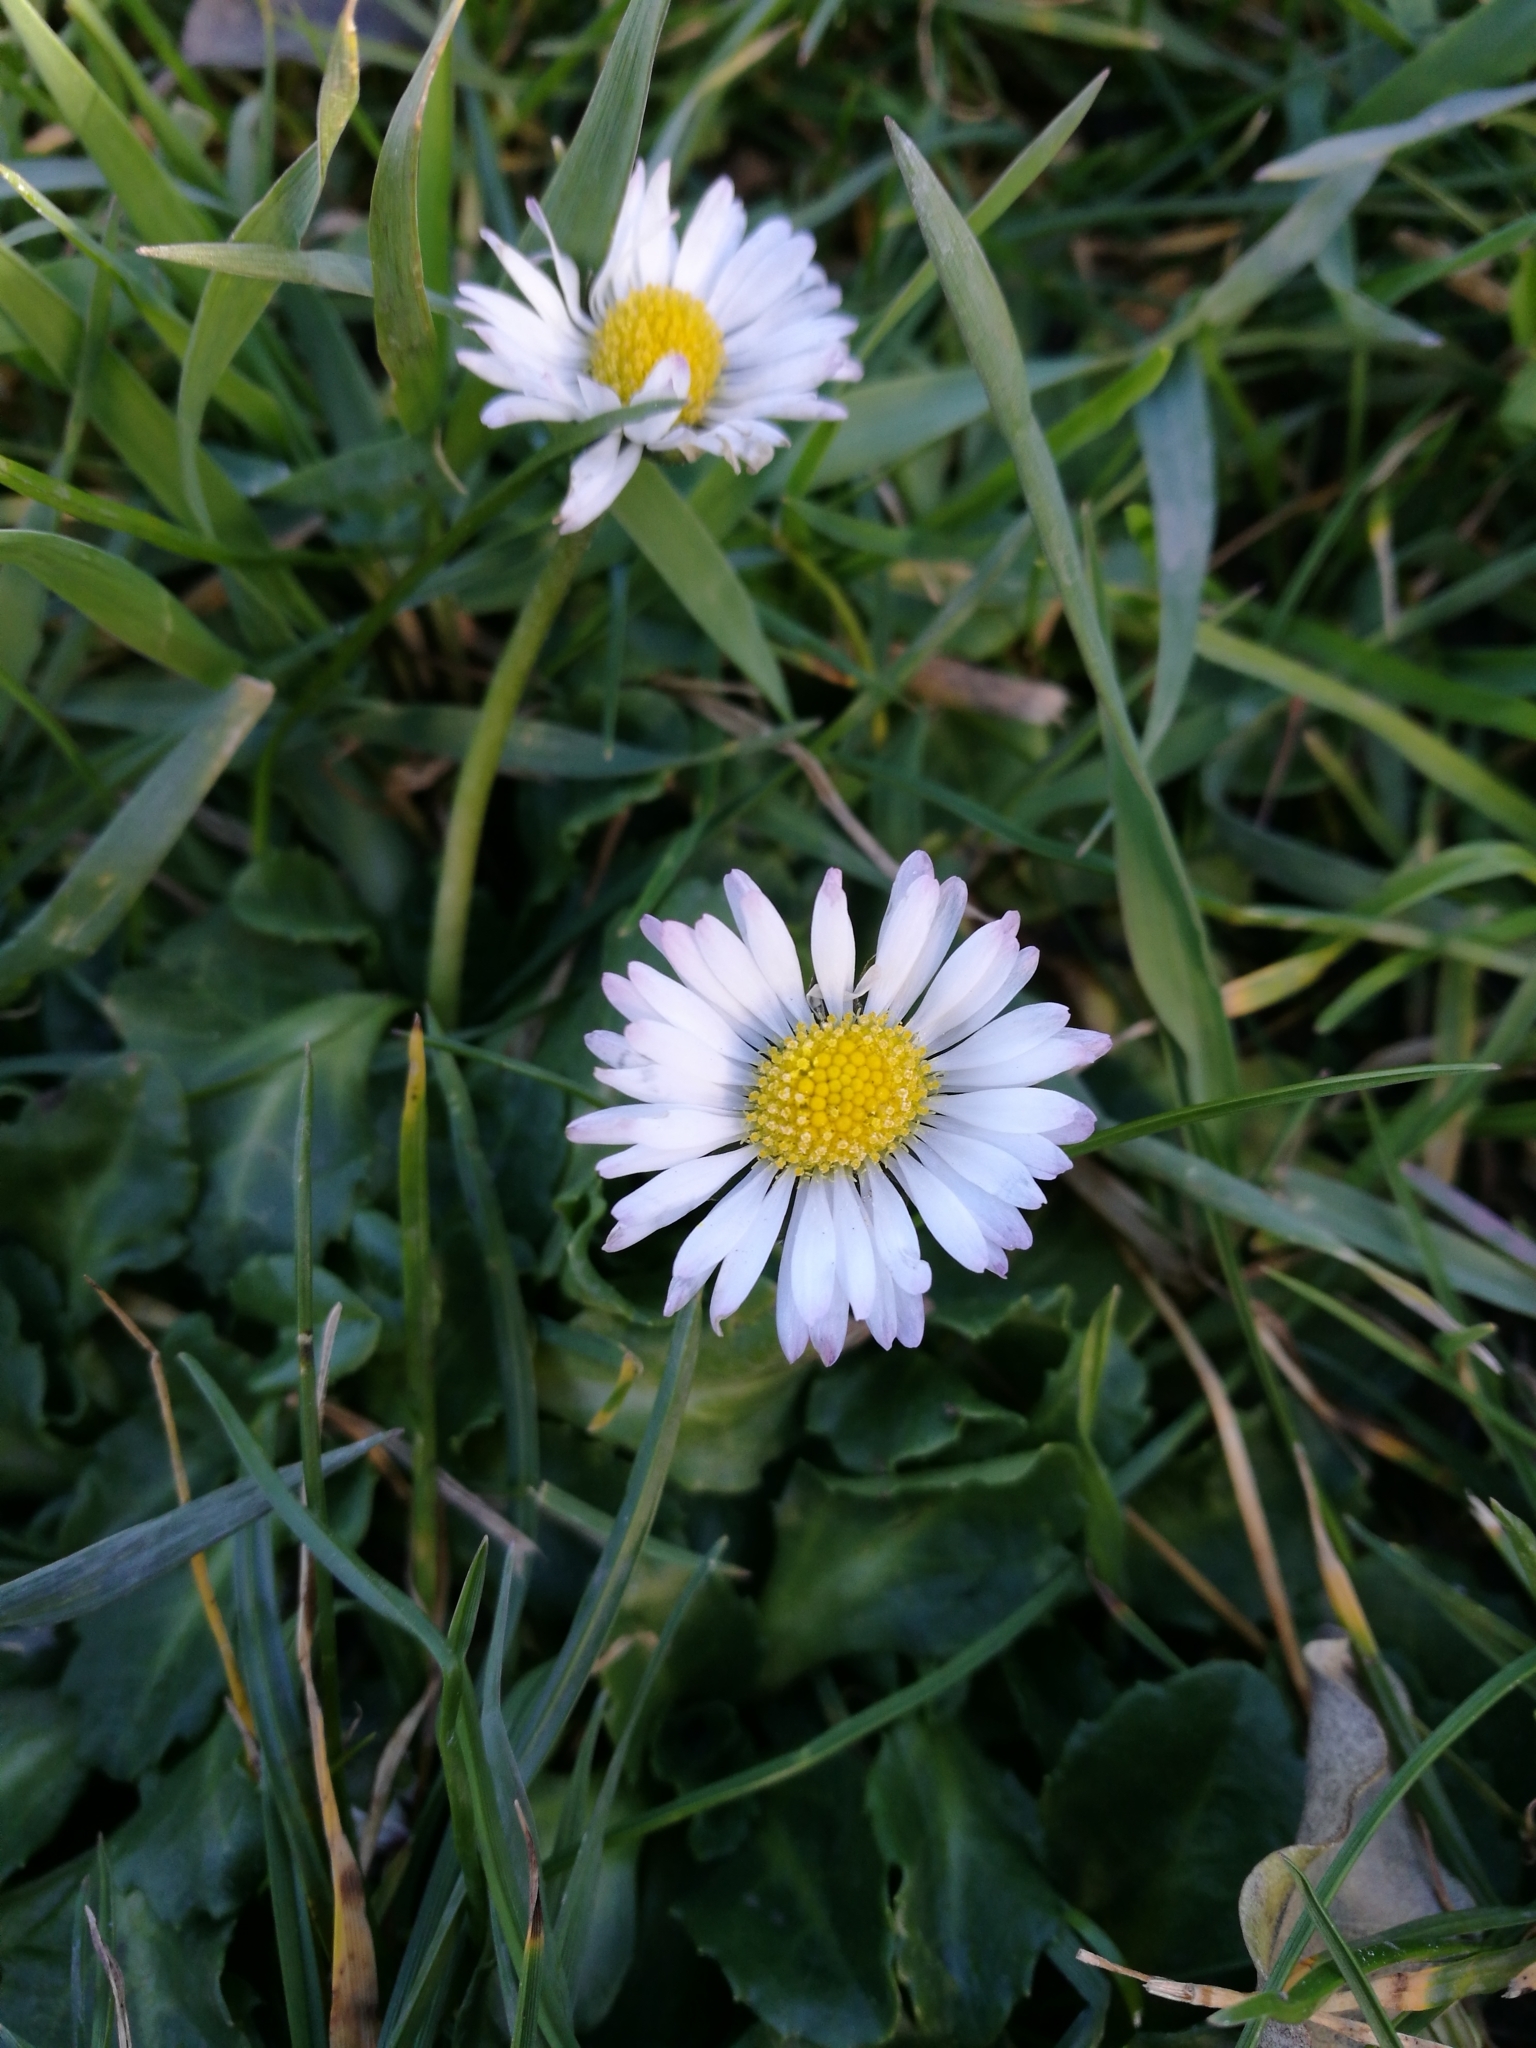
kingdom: Plantae
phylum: Tracheophyta
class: Magnoliopsida
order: Asterales
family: Asteraceae
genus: Bellis
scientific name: Bellis perennis
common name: Lawndaisy
